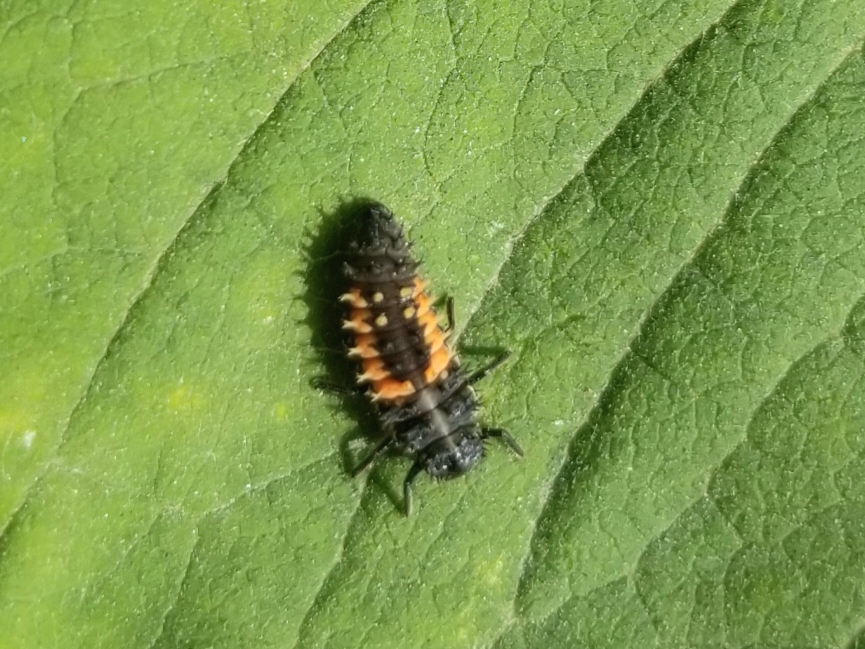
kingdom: Animalia
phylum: Arthropoda
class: Insecta
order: Coleoptera
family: Coccinellidae
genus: Harmonia
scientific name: Harmonia axyridis
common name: Harlequin ladybird
